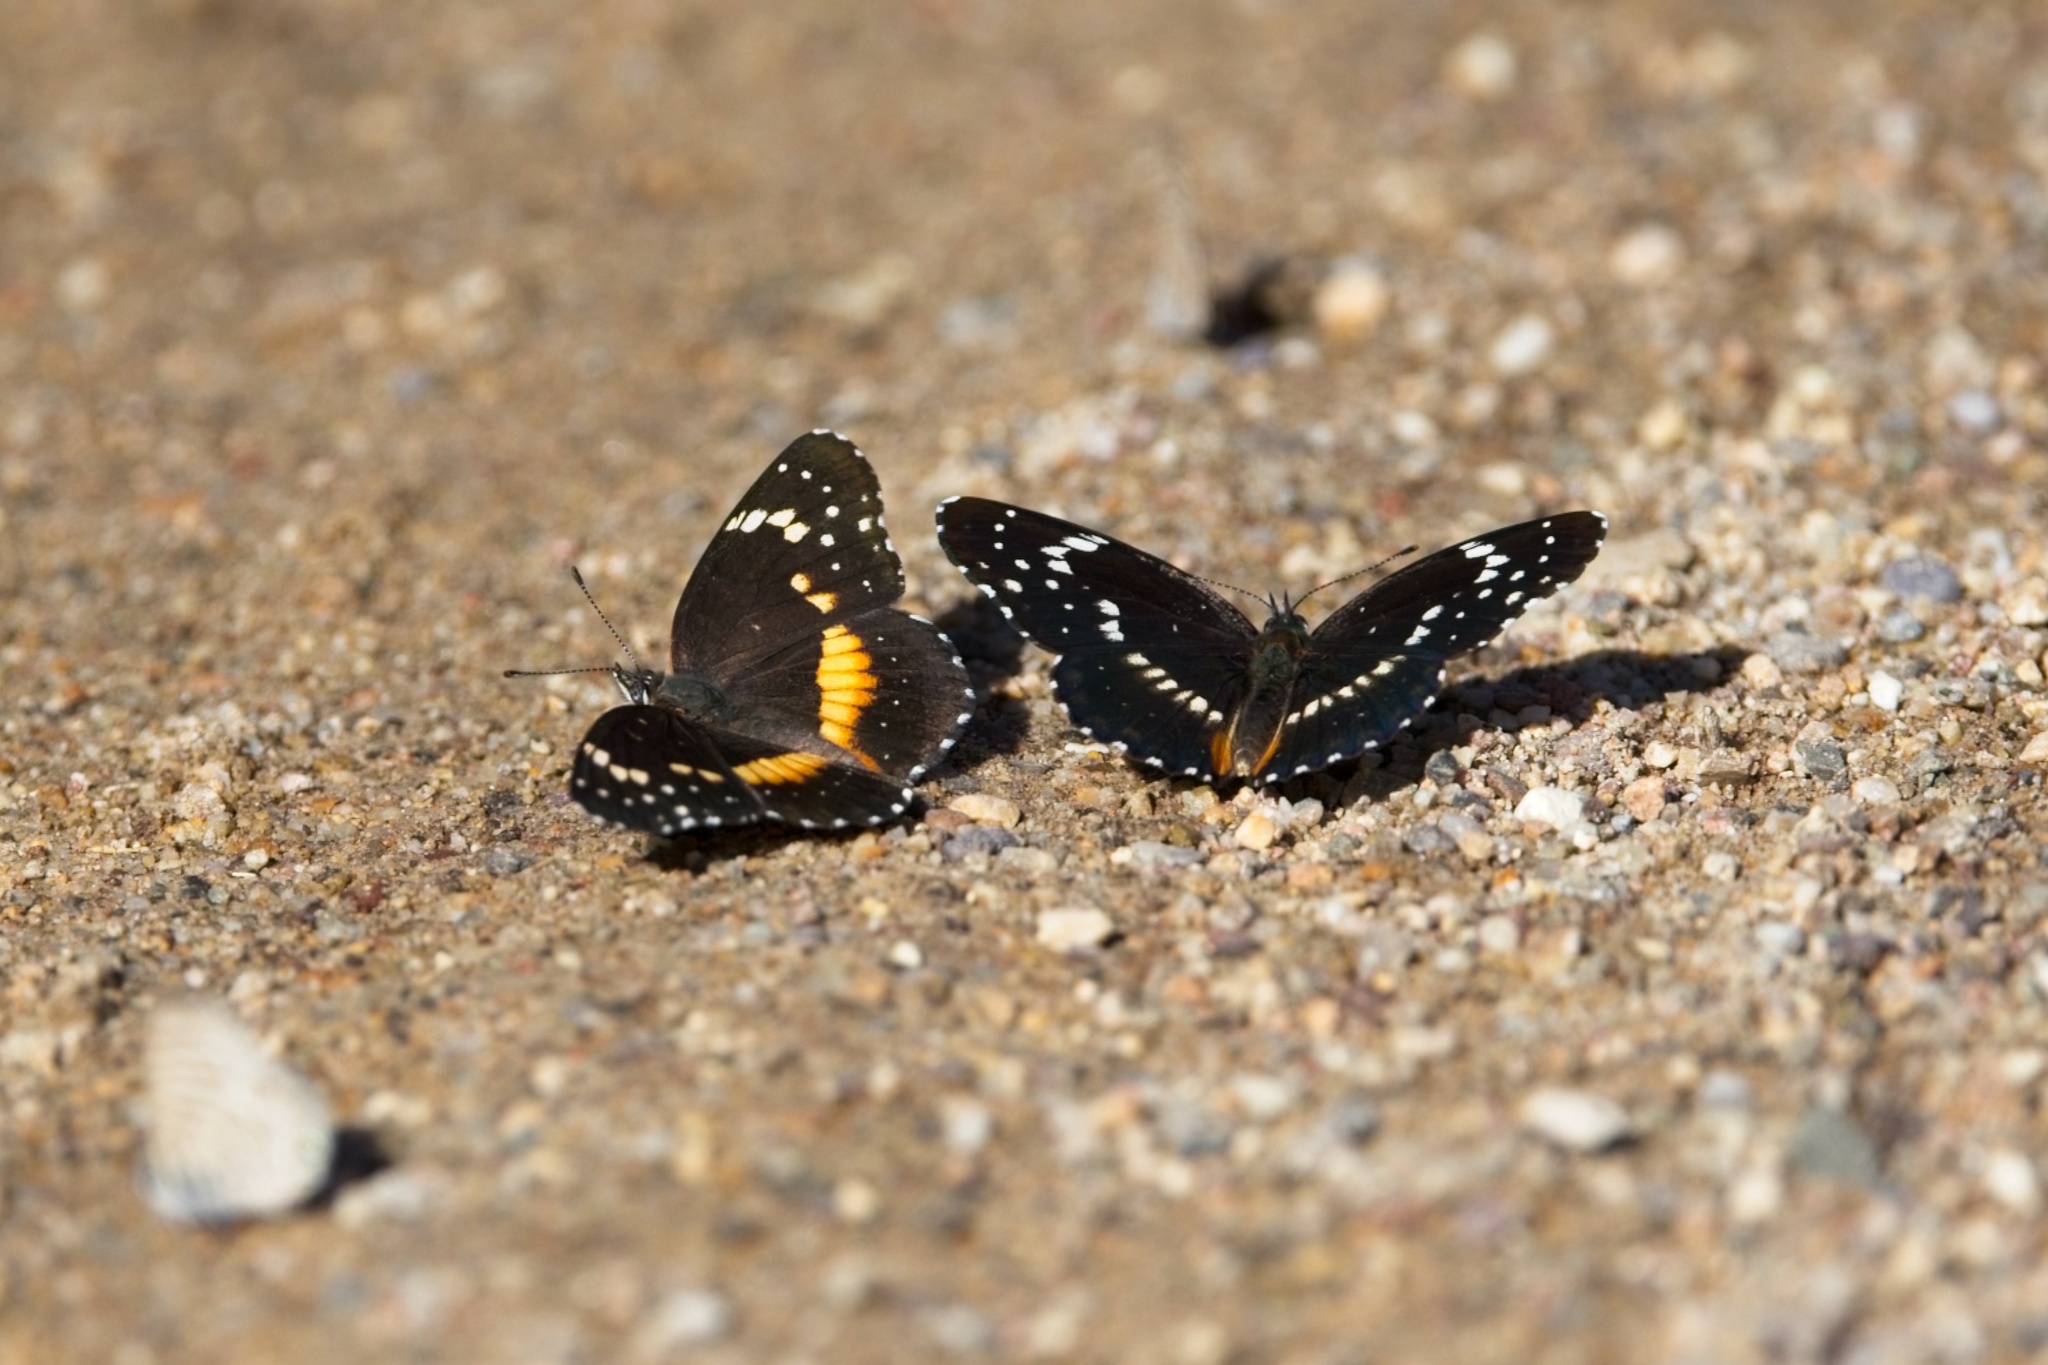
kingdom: Animalia
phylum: Arthropoda
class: Insecta
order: Lepidoptera
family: Nymphalidae
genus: Chlosyne
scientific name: Chlosyne lacinia
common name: Bordered patch
